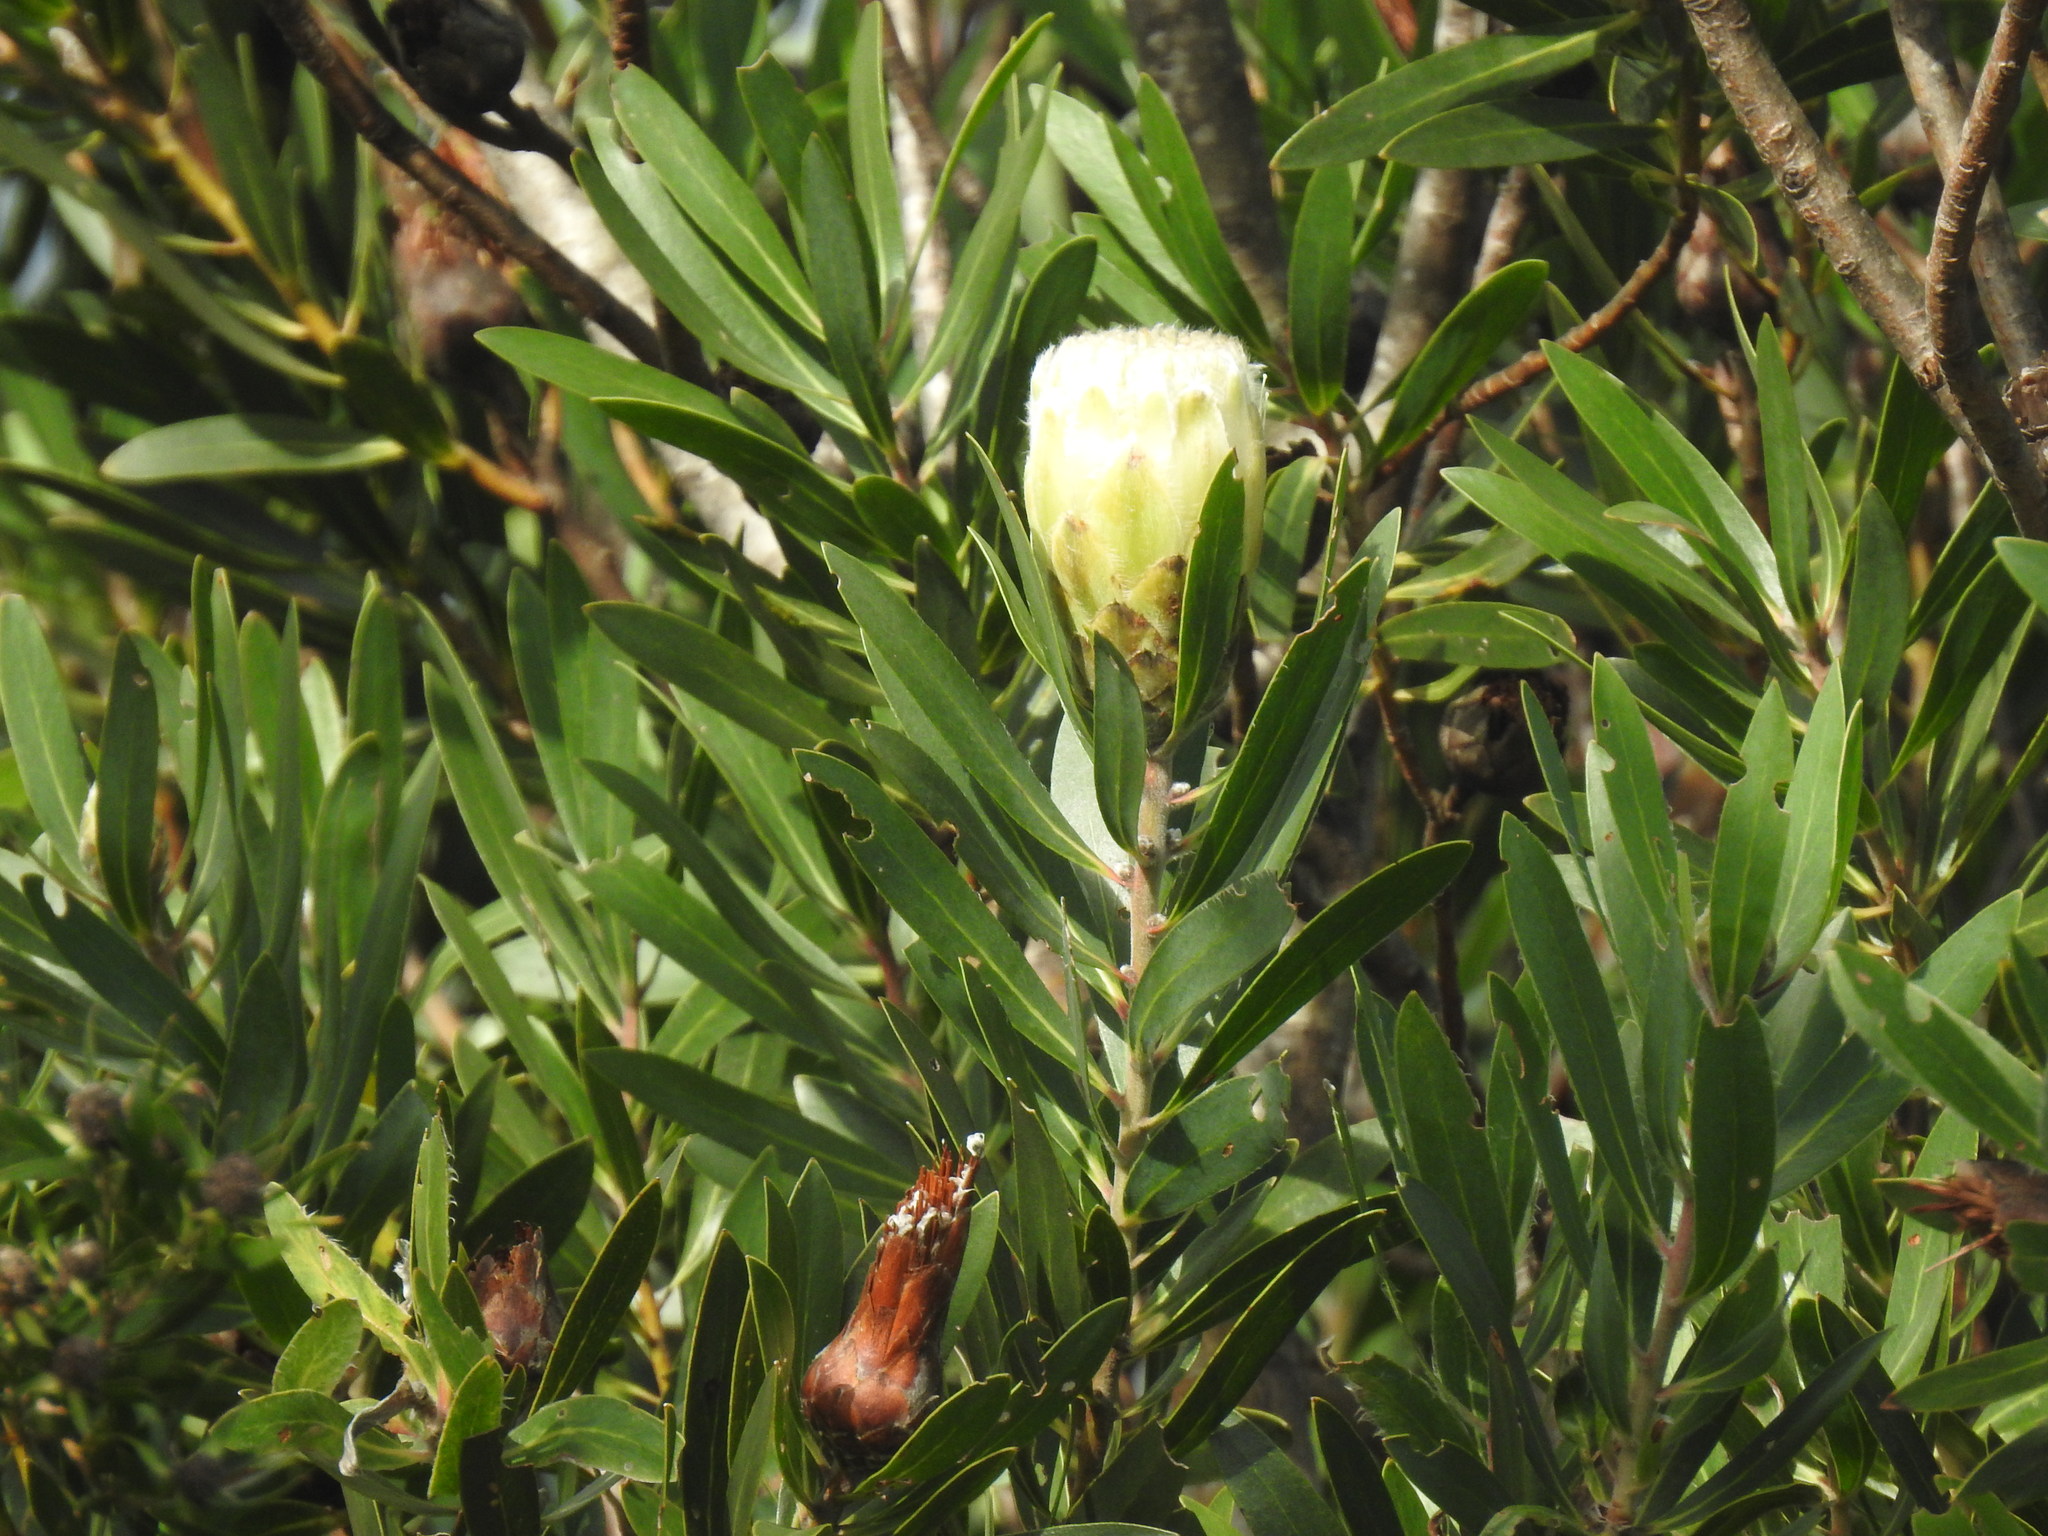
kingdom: Plantae
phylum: Tracheophyta
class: Magnoliopsida
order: Proteales
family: Proteaceae
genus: Protea
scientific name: Protea mundii
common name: Forest sugarbush
